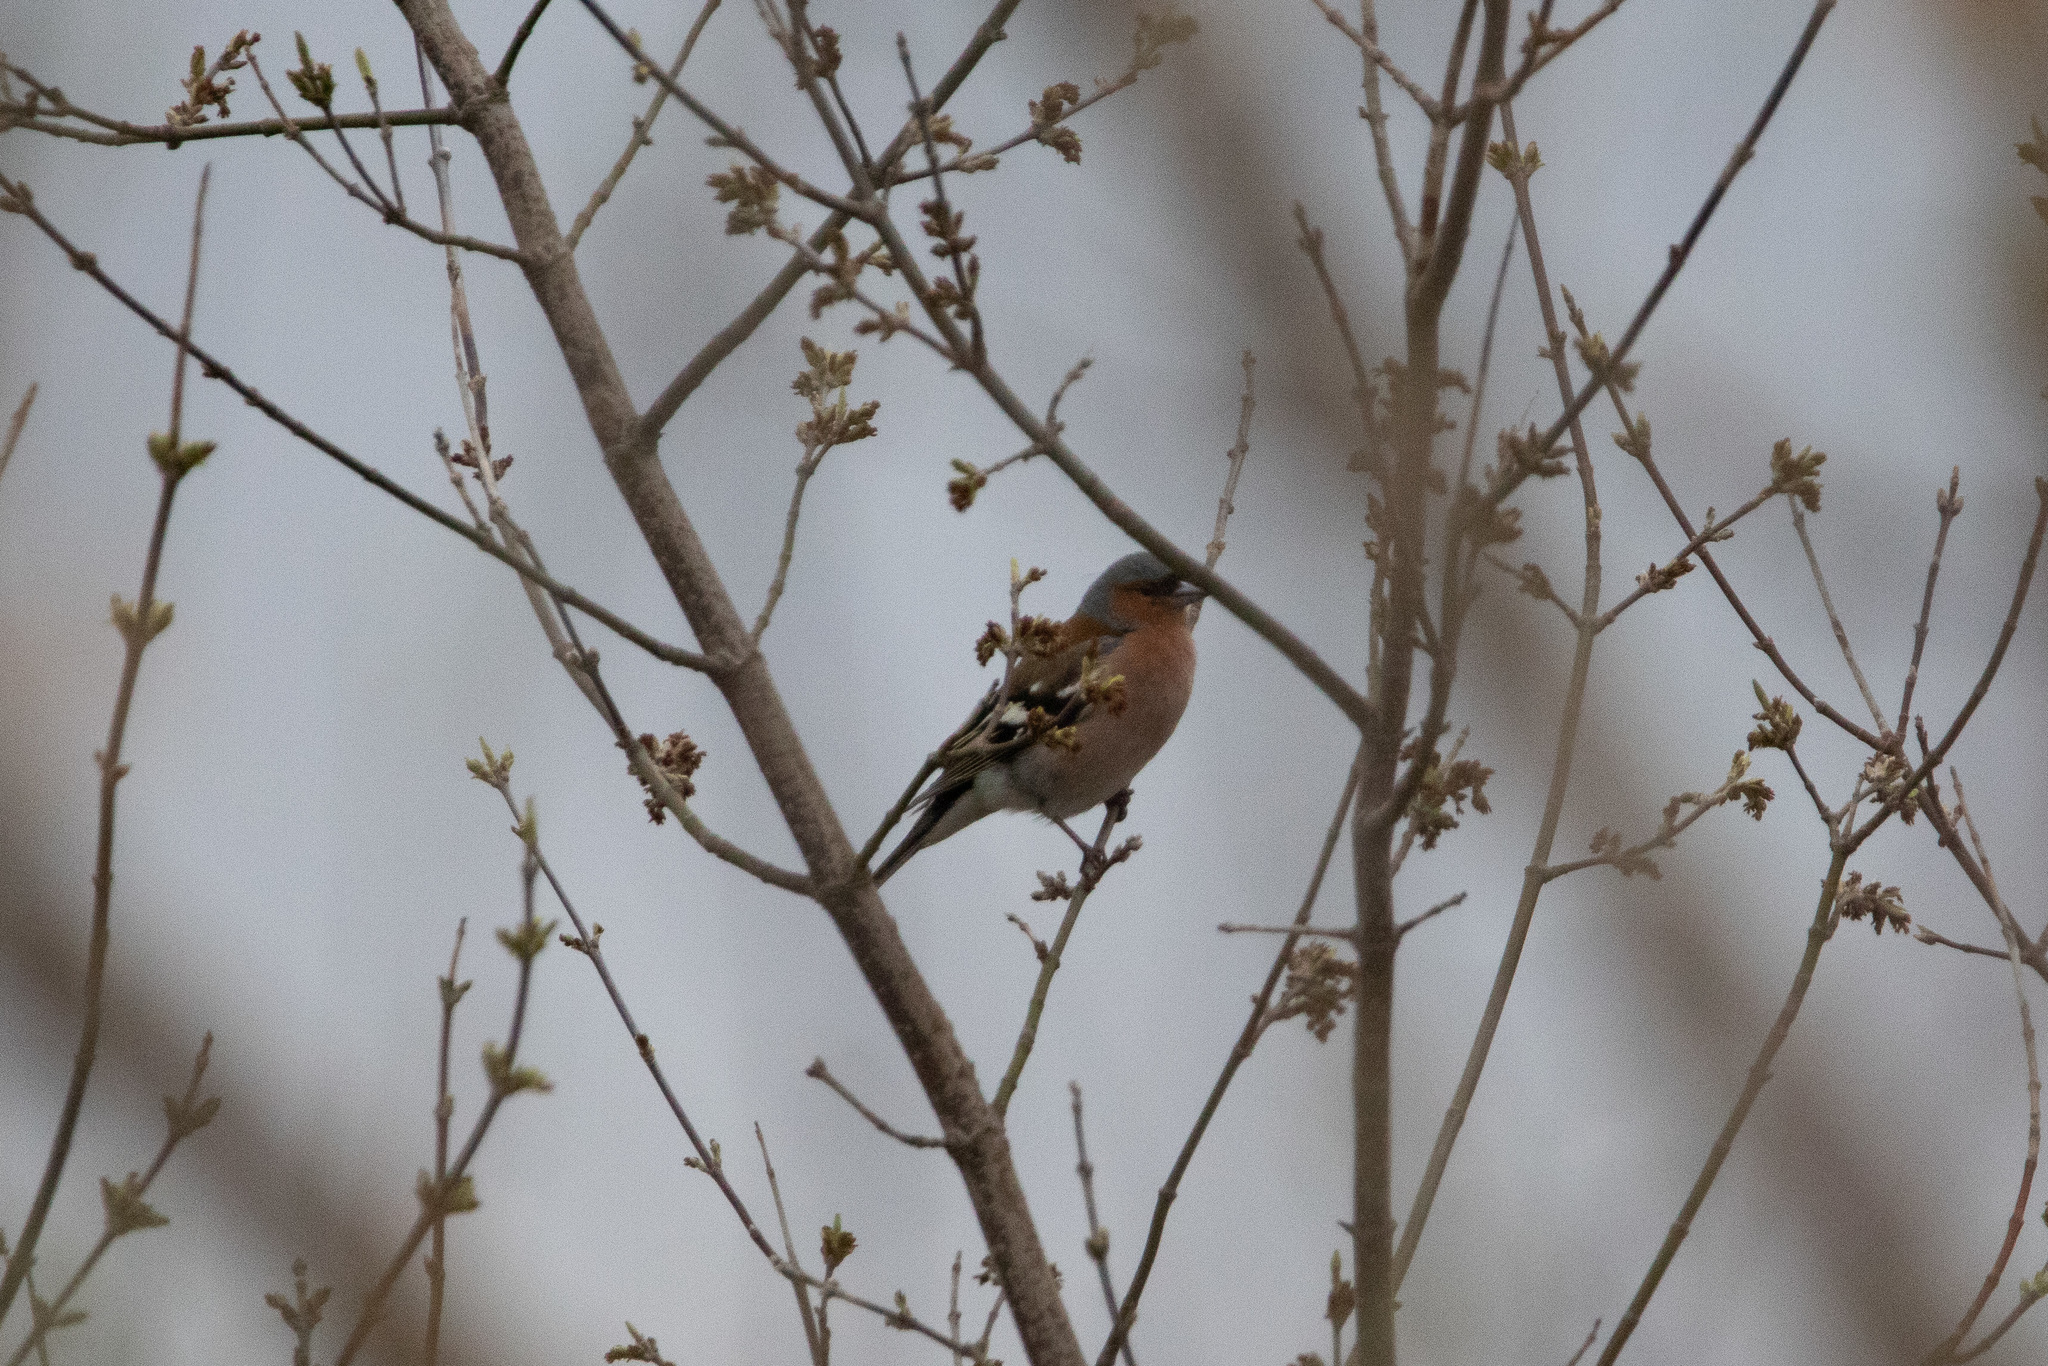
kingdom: Animalia
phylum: Chordata
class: Aves
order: Passeriformes
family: Fringillidae
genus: Fringilla
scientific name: Fringilla coelebs
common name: Common chaffinch
